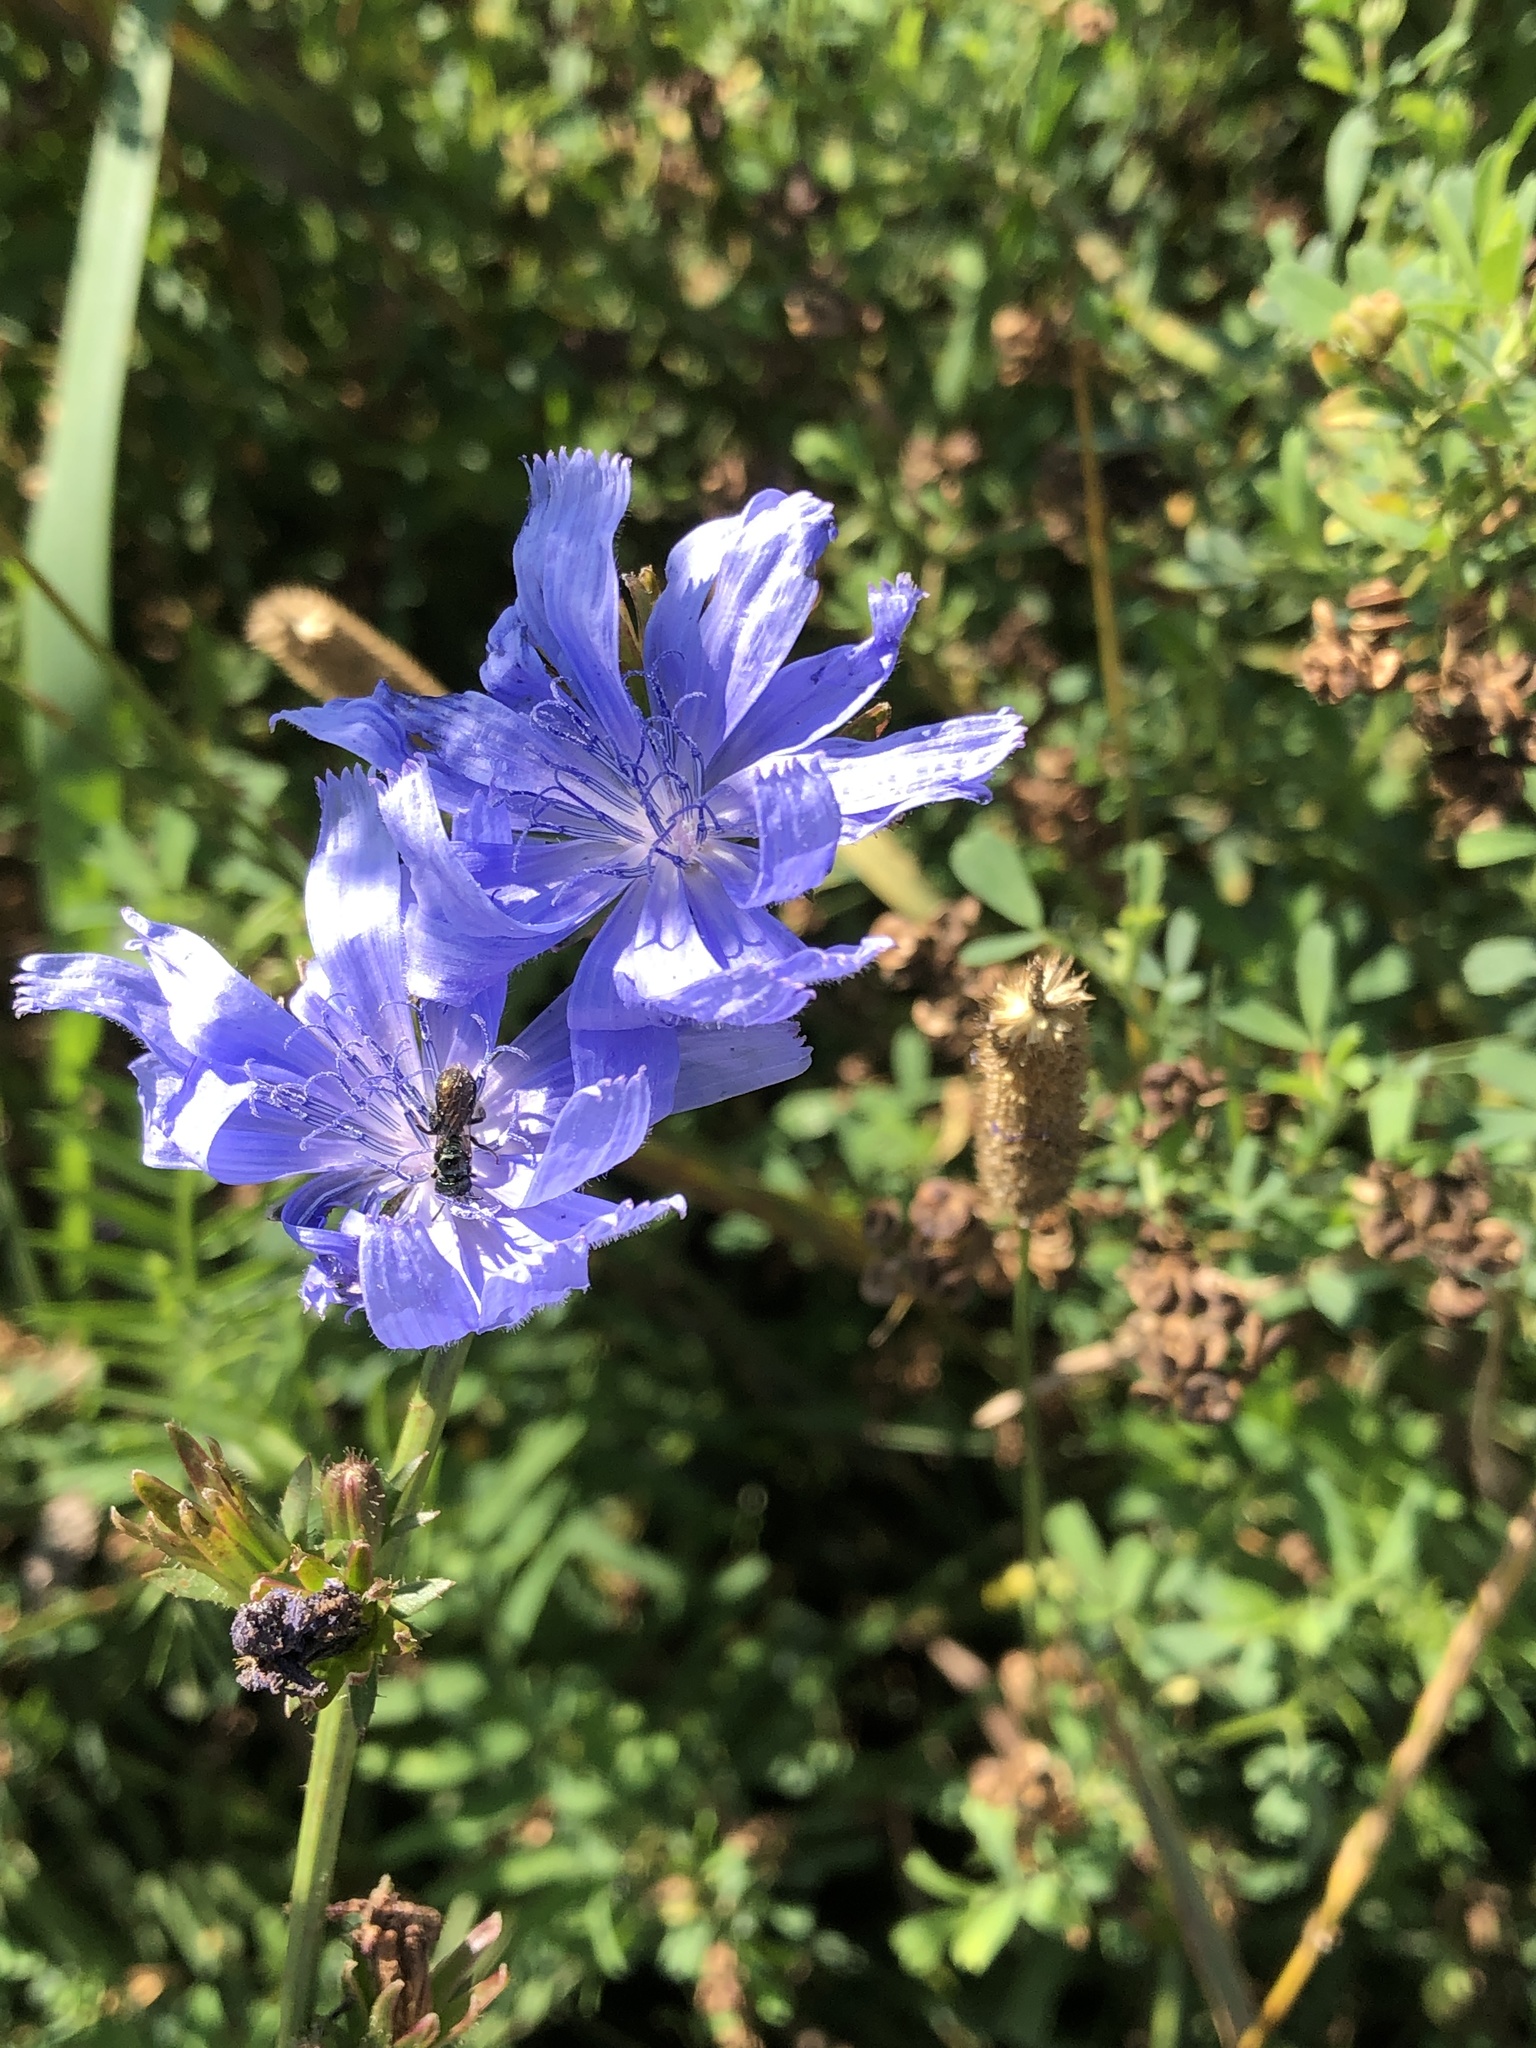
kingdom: Plantae
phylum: Tracheophyta
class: Magnoliopsida
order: Asterales
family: Asteraceae
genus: Cichorium
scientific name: Cichorium intybus
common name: Chicory
